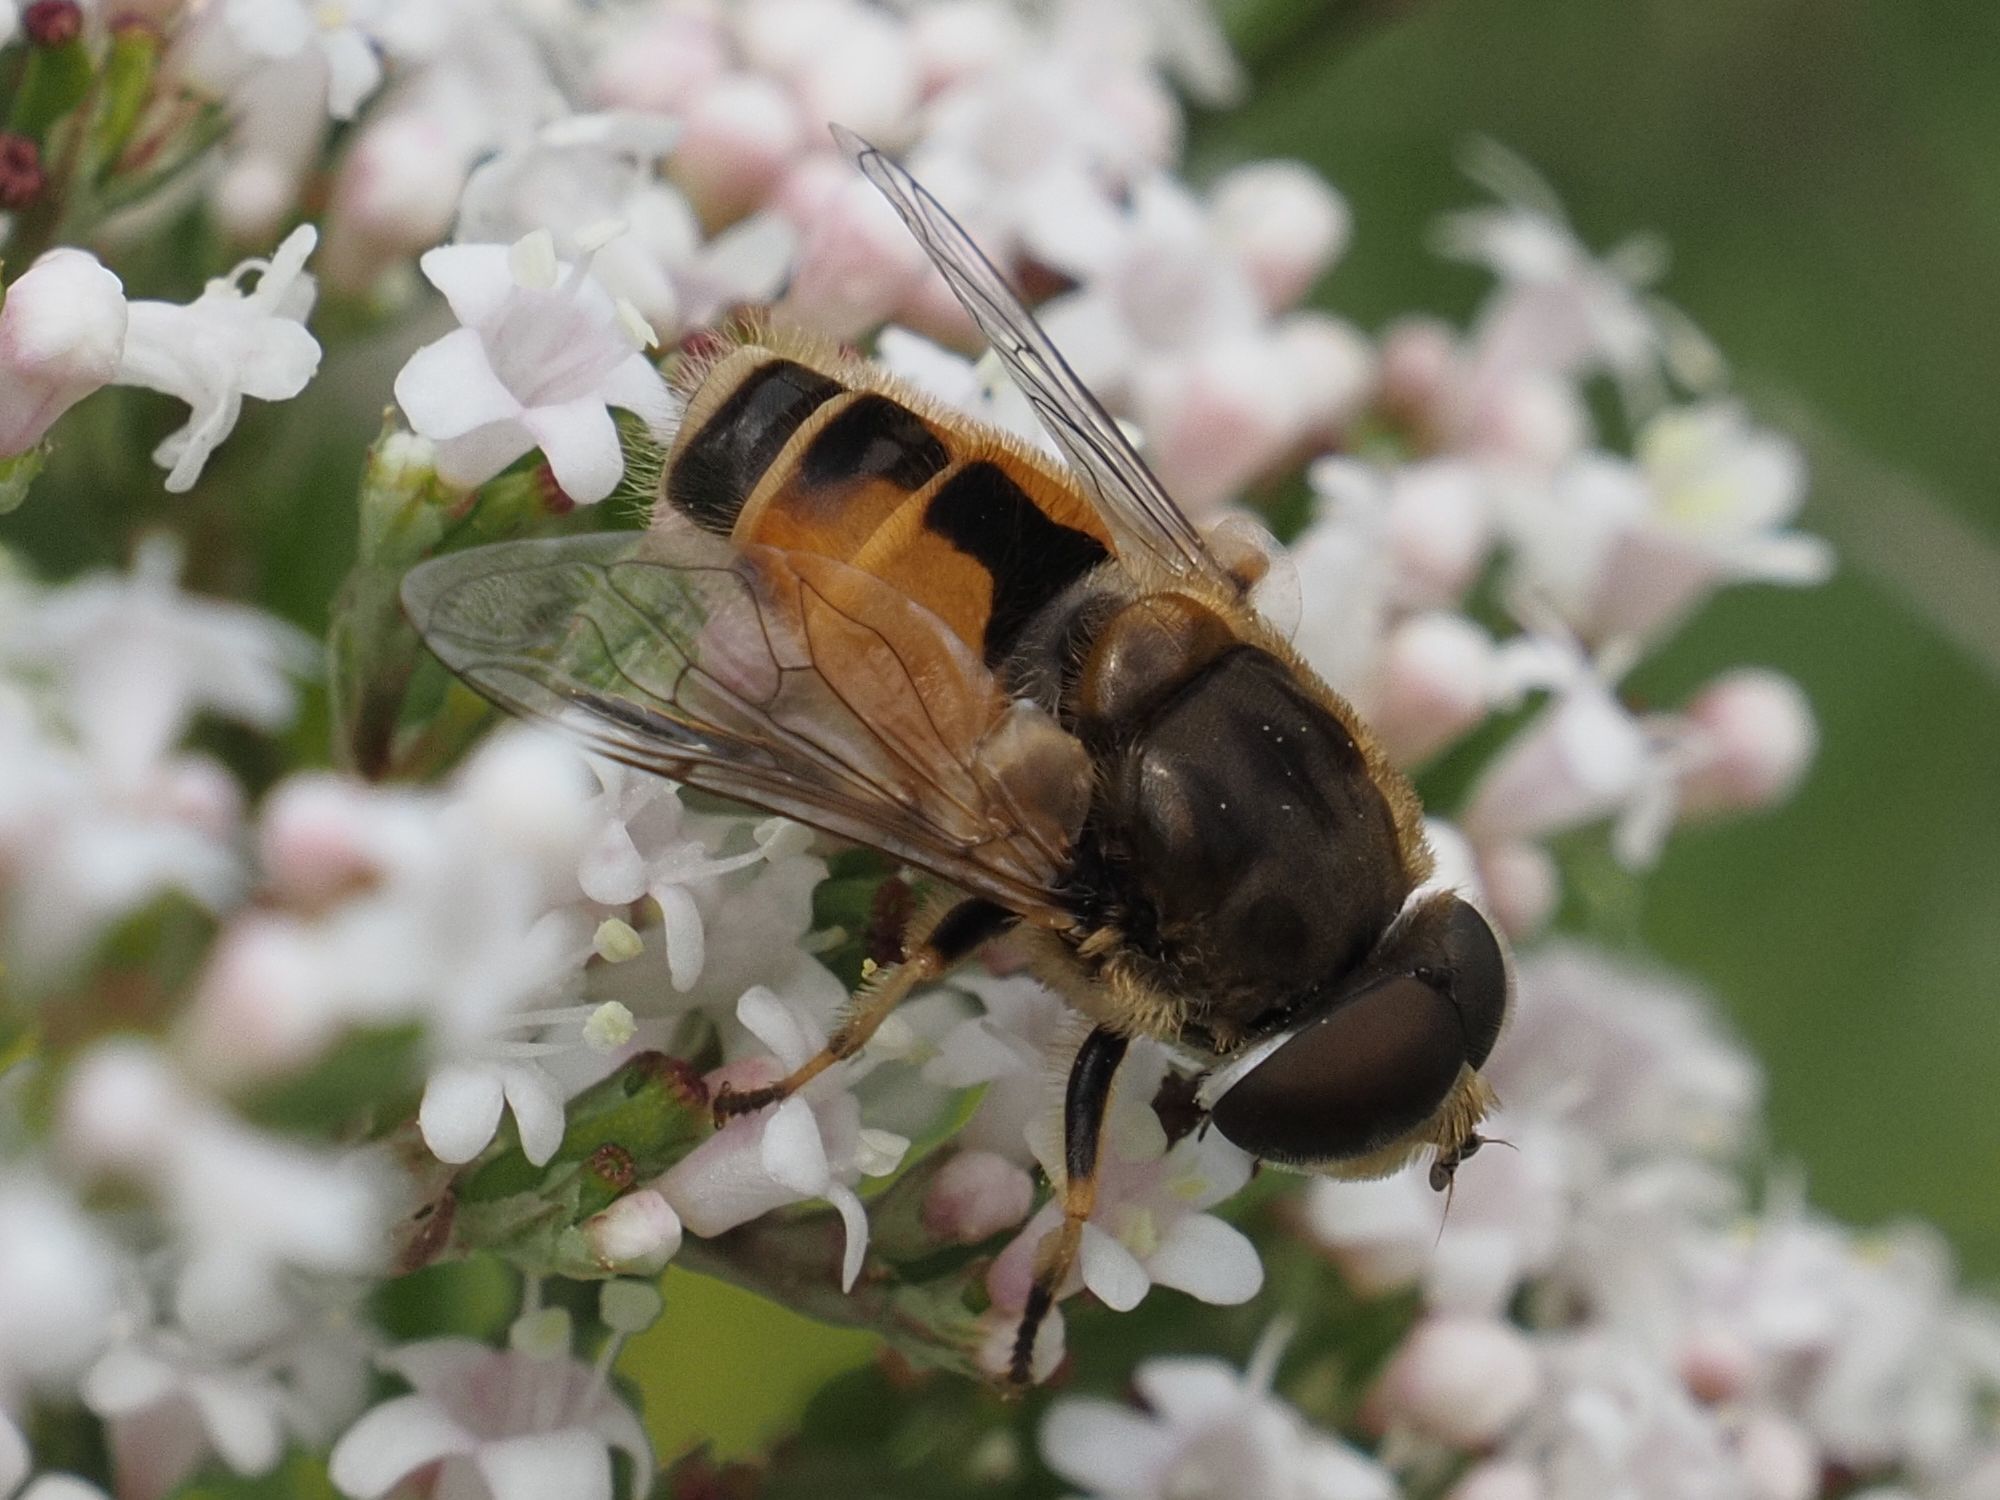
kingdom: Animalia
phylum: Arthropoda
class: Insecta
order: Diptera
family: Syrphidae
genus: Eristalis
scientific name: Eristalis arbustorum
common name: Hover fly
